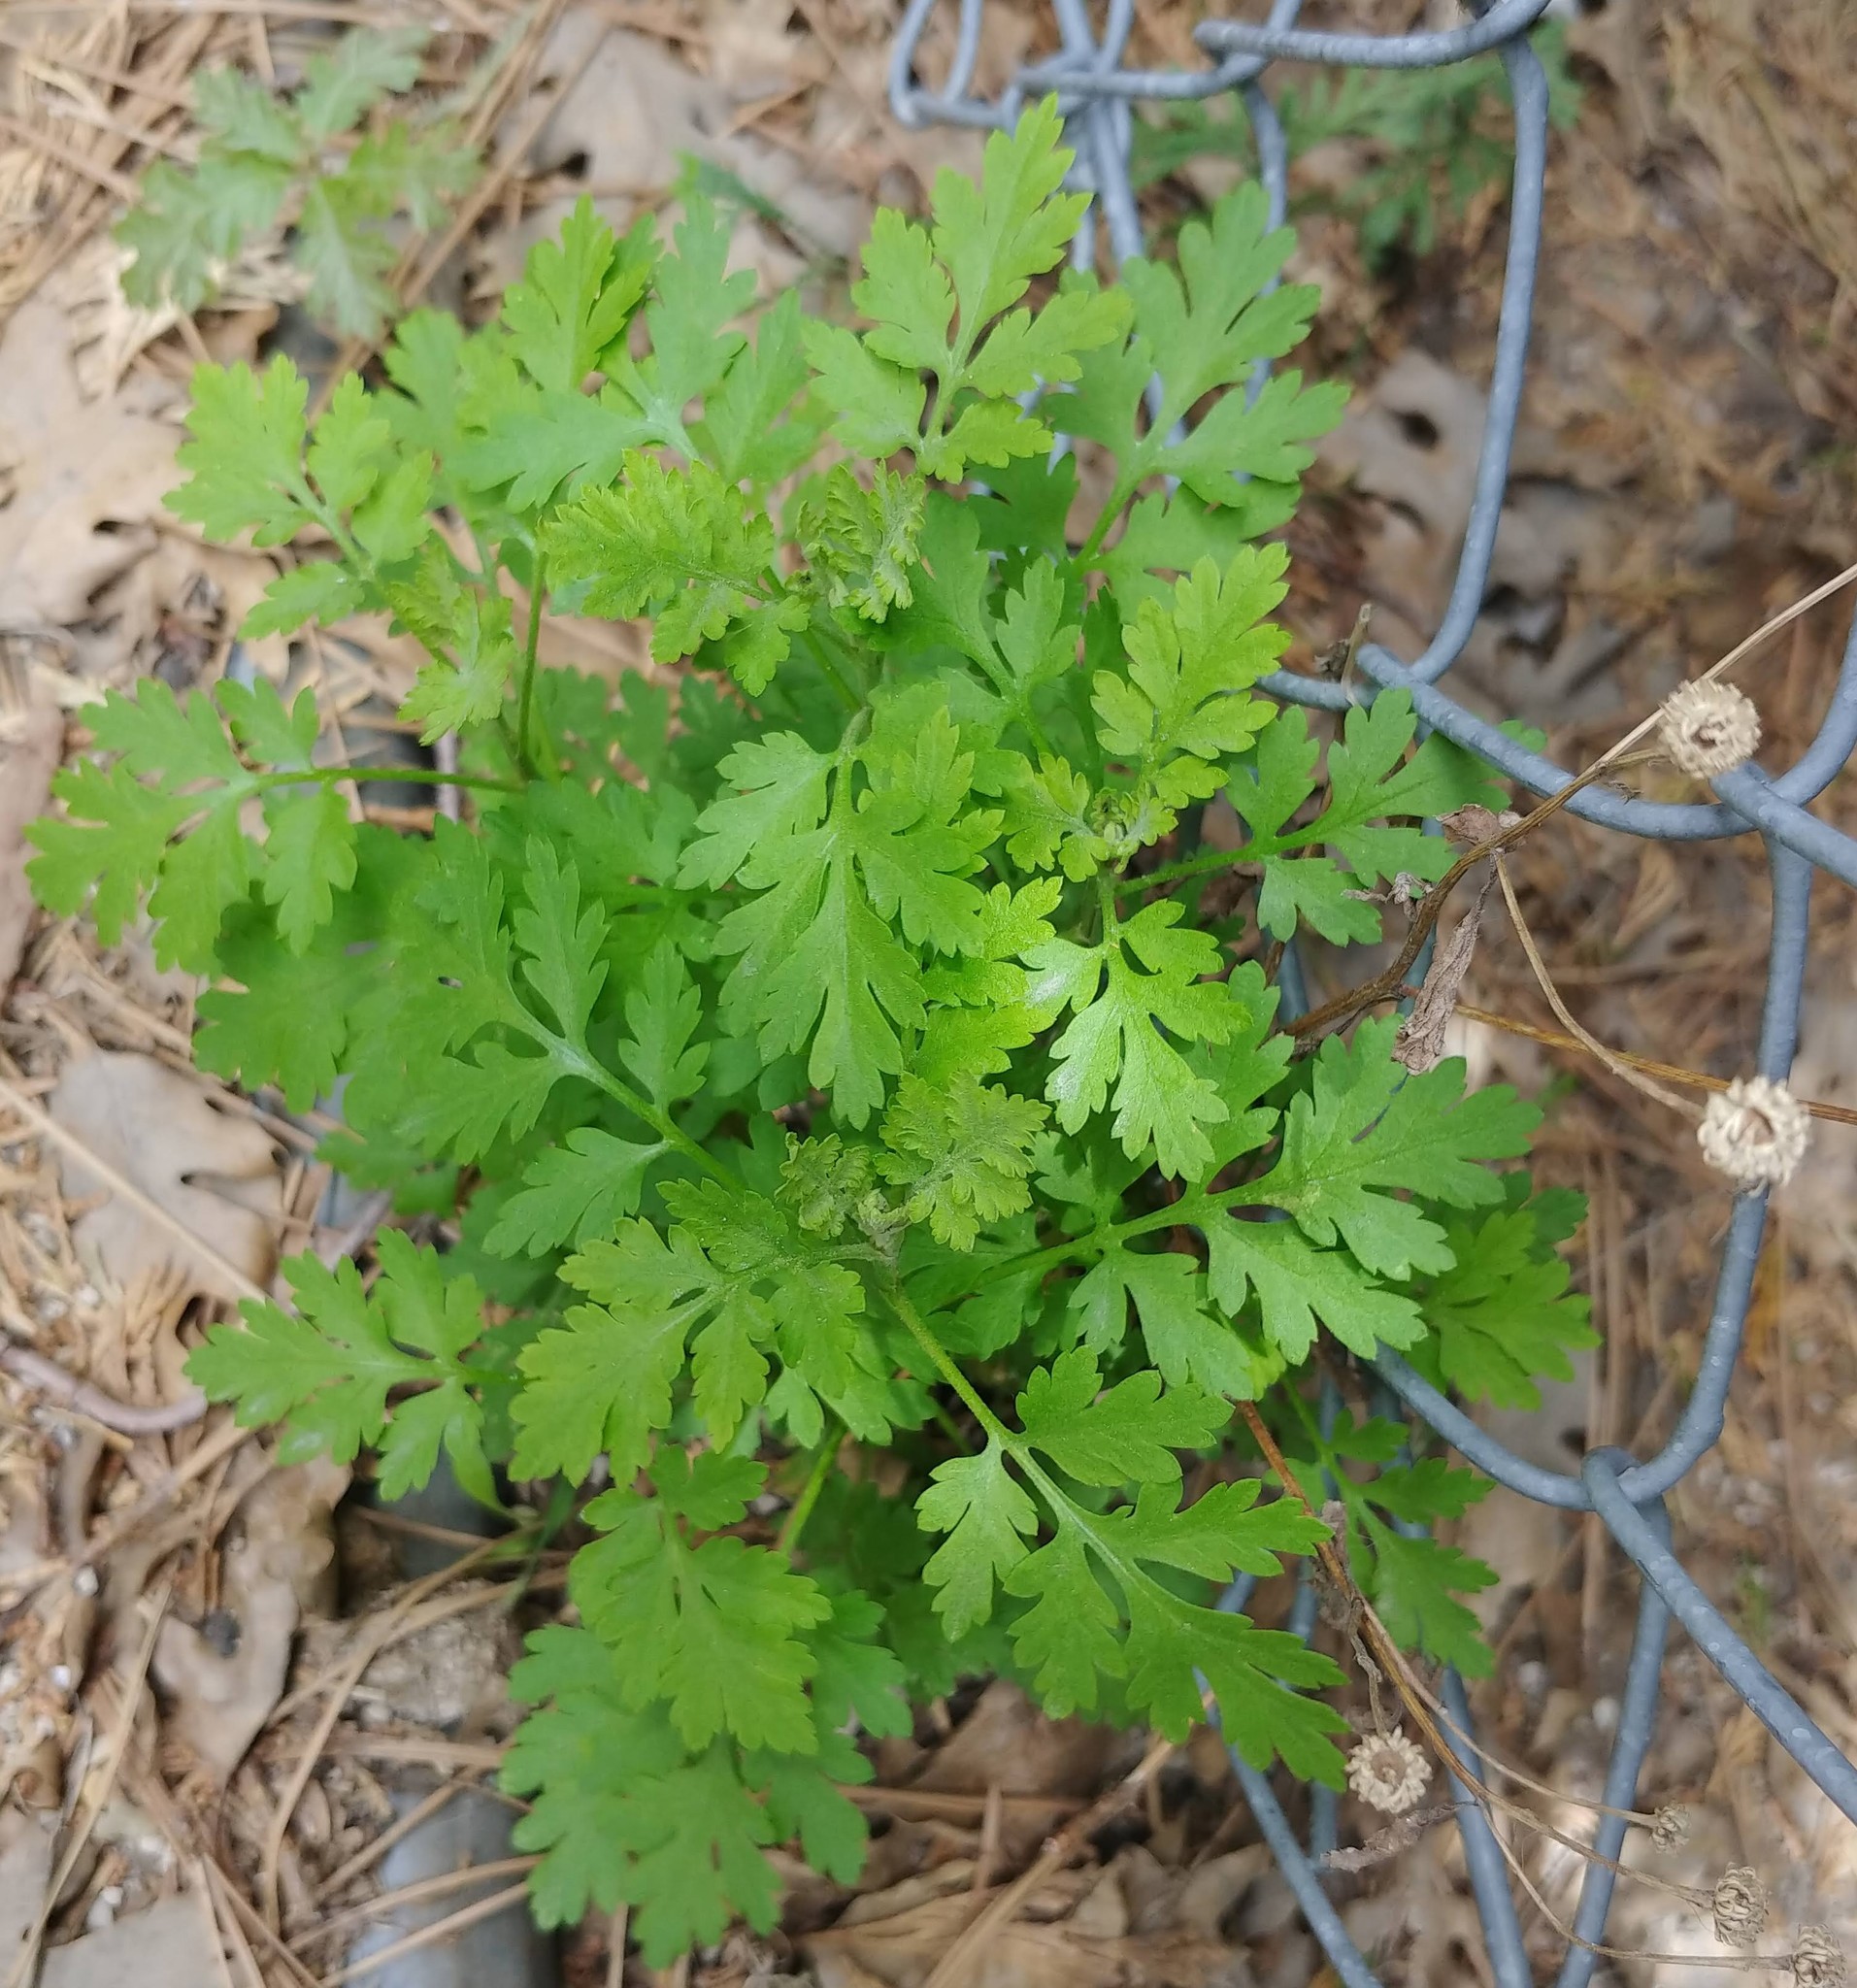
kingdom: Plantae
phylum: Tracheophyta
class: Magnoliopsida
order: Asterales
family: Asteraceae
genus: Tanacetum
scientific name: Tanacetum parthenium
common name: Feverfew
